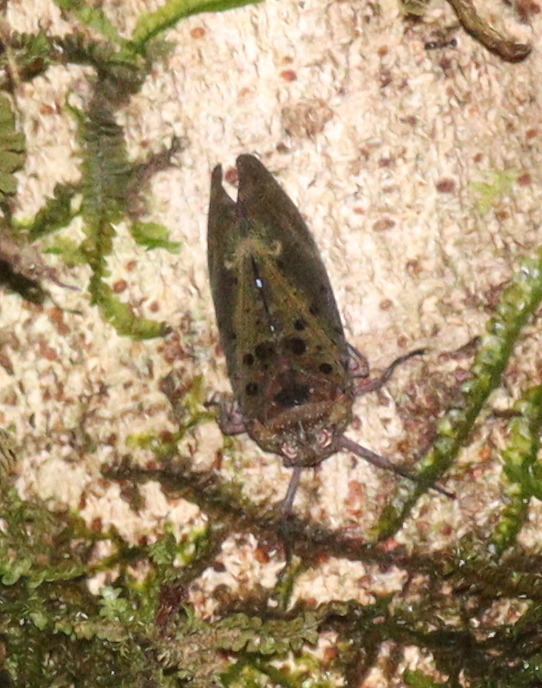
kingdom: Animalia
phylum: Arthropoda
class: Insecta
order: Hemiptera
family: Fulgoridae
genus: Copidocephala
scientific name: Copidocephala viridiguttata
